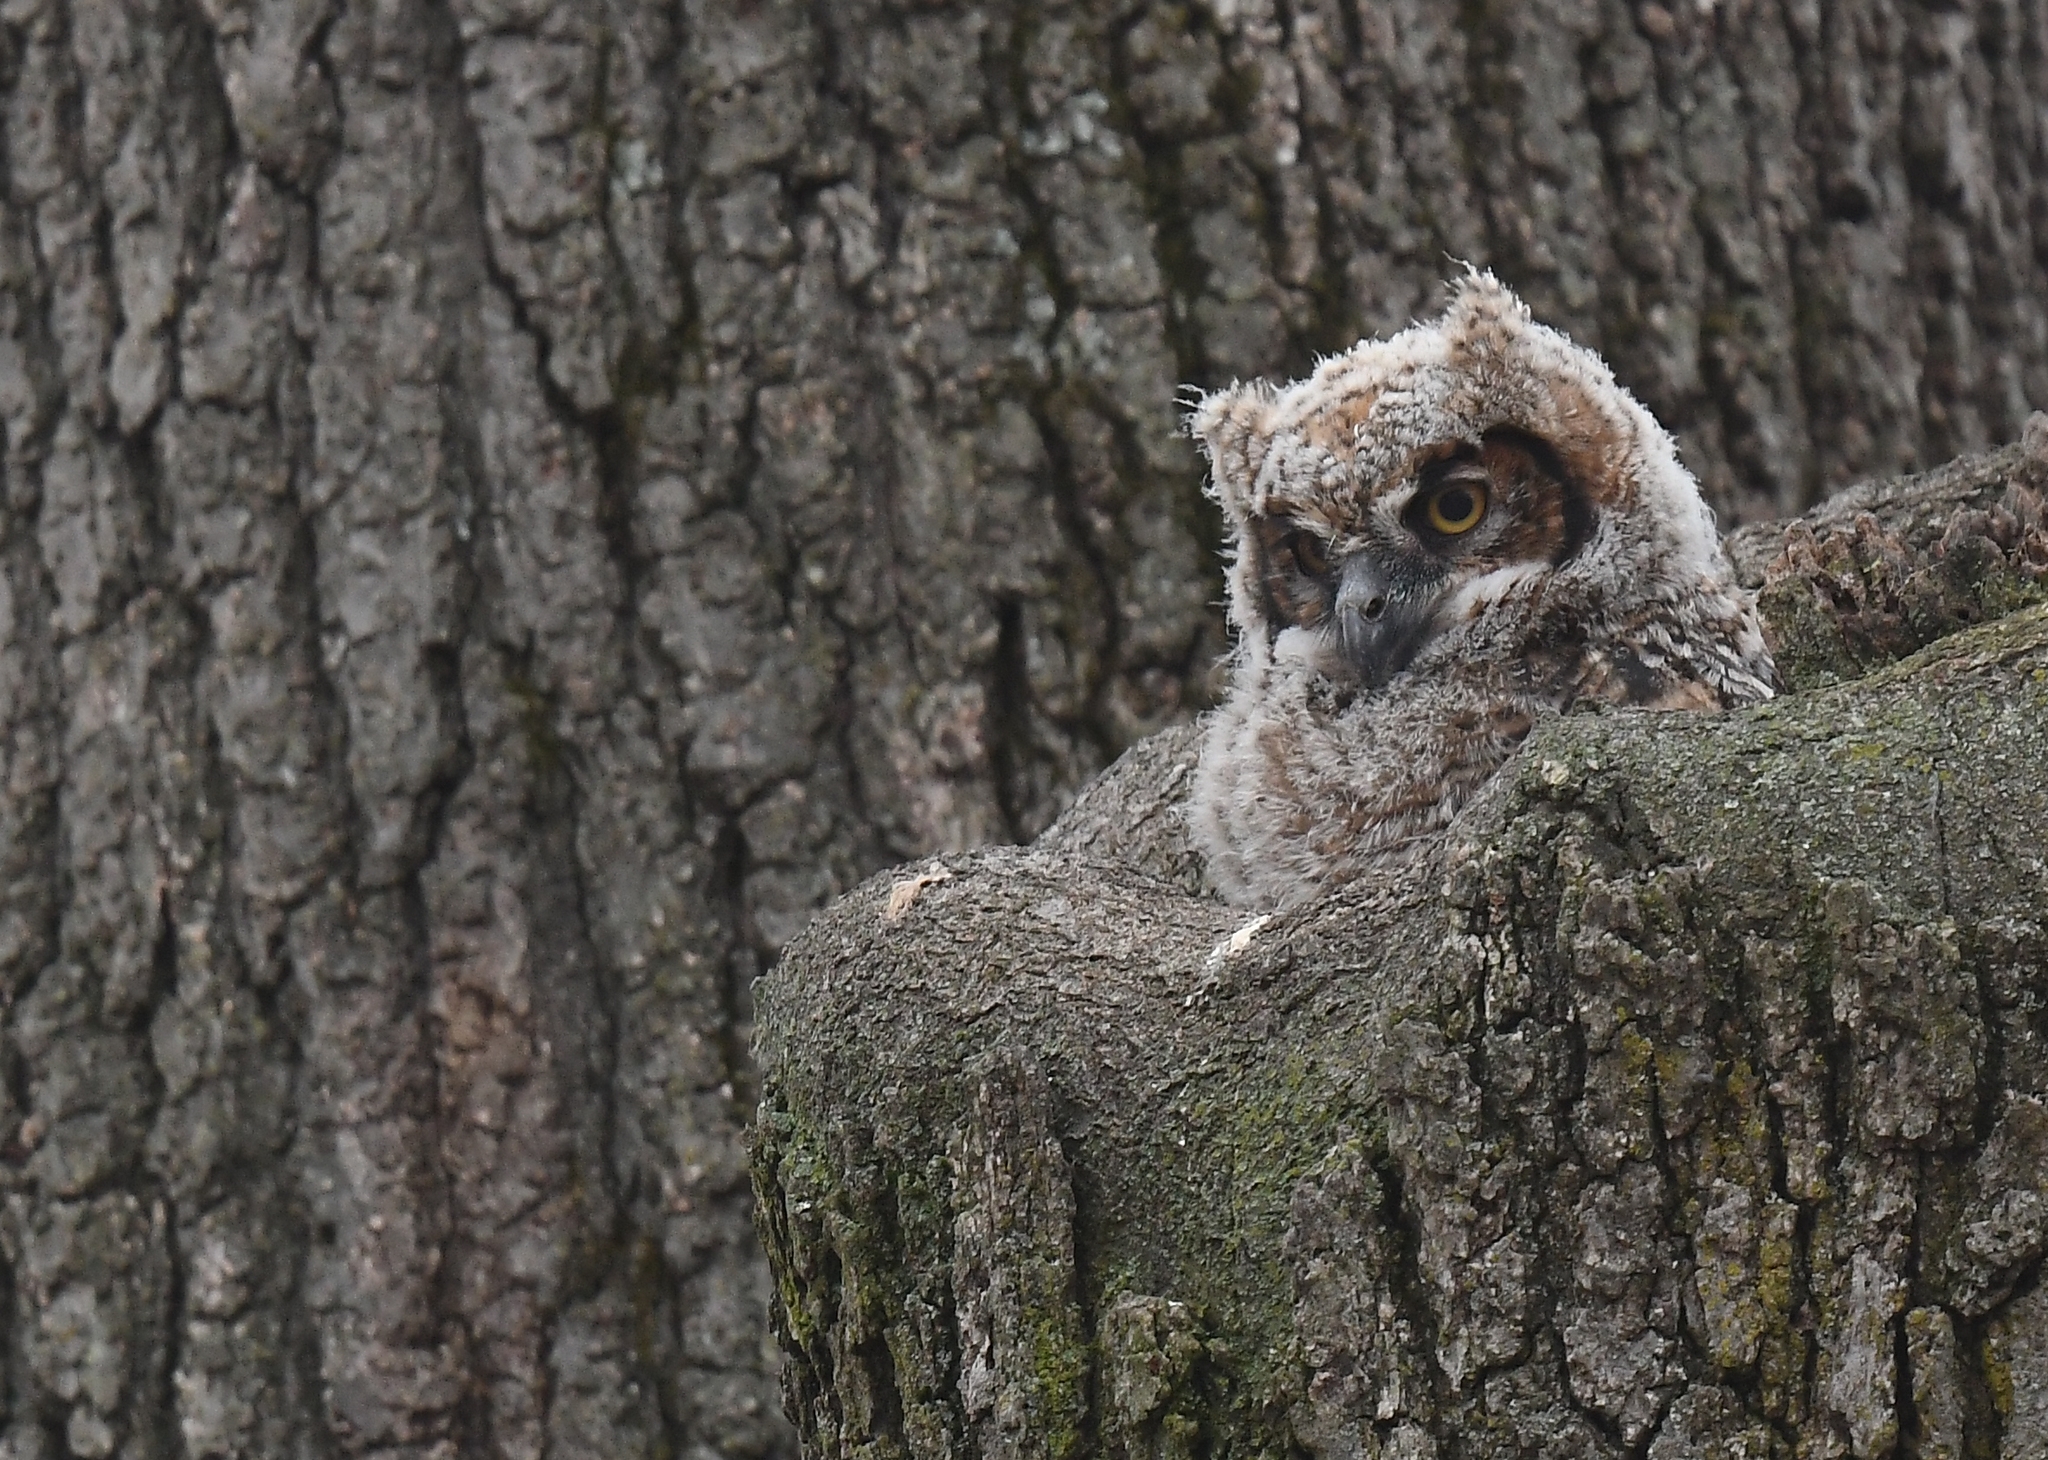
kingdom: Animalia
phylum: Chordata
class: Aves
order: Strigiformes
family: Strigidae
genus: Bubo
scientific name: Bubo virginianus
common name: Great horned owl
